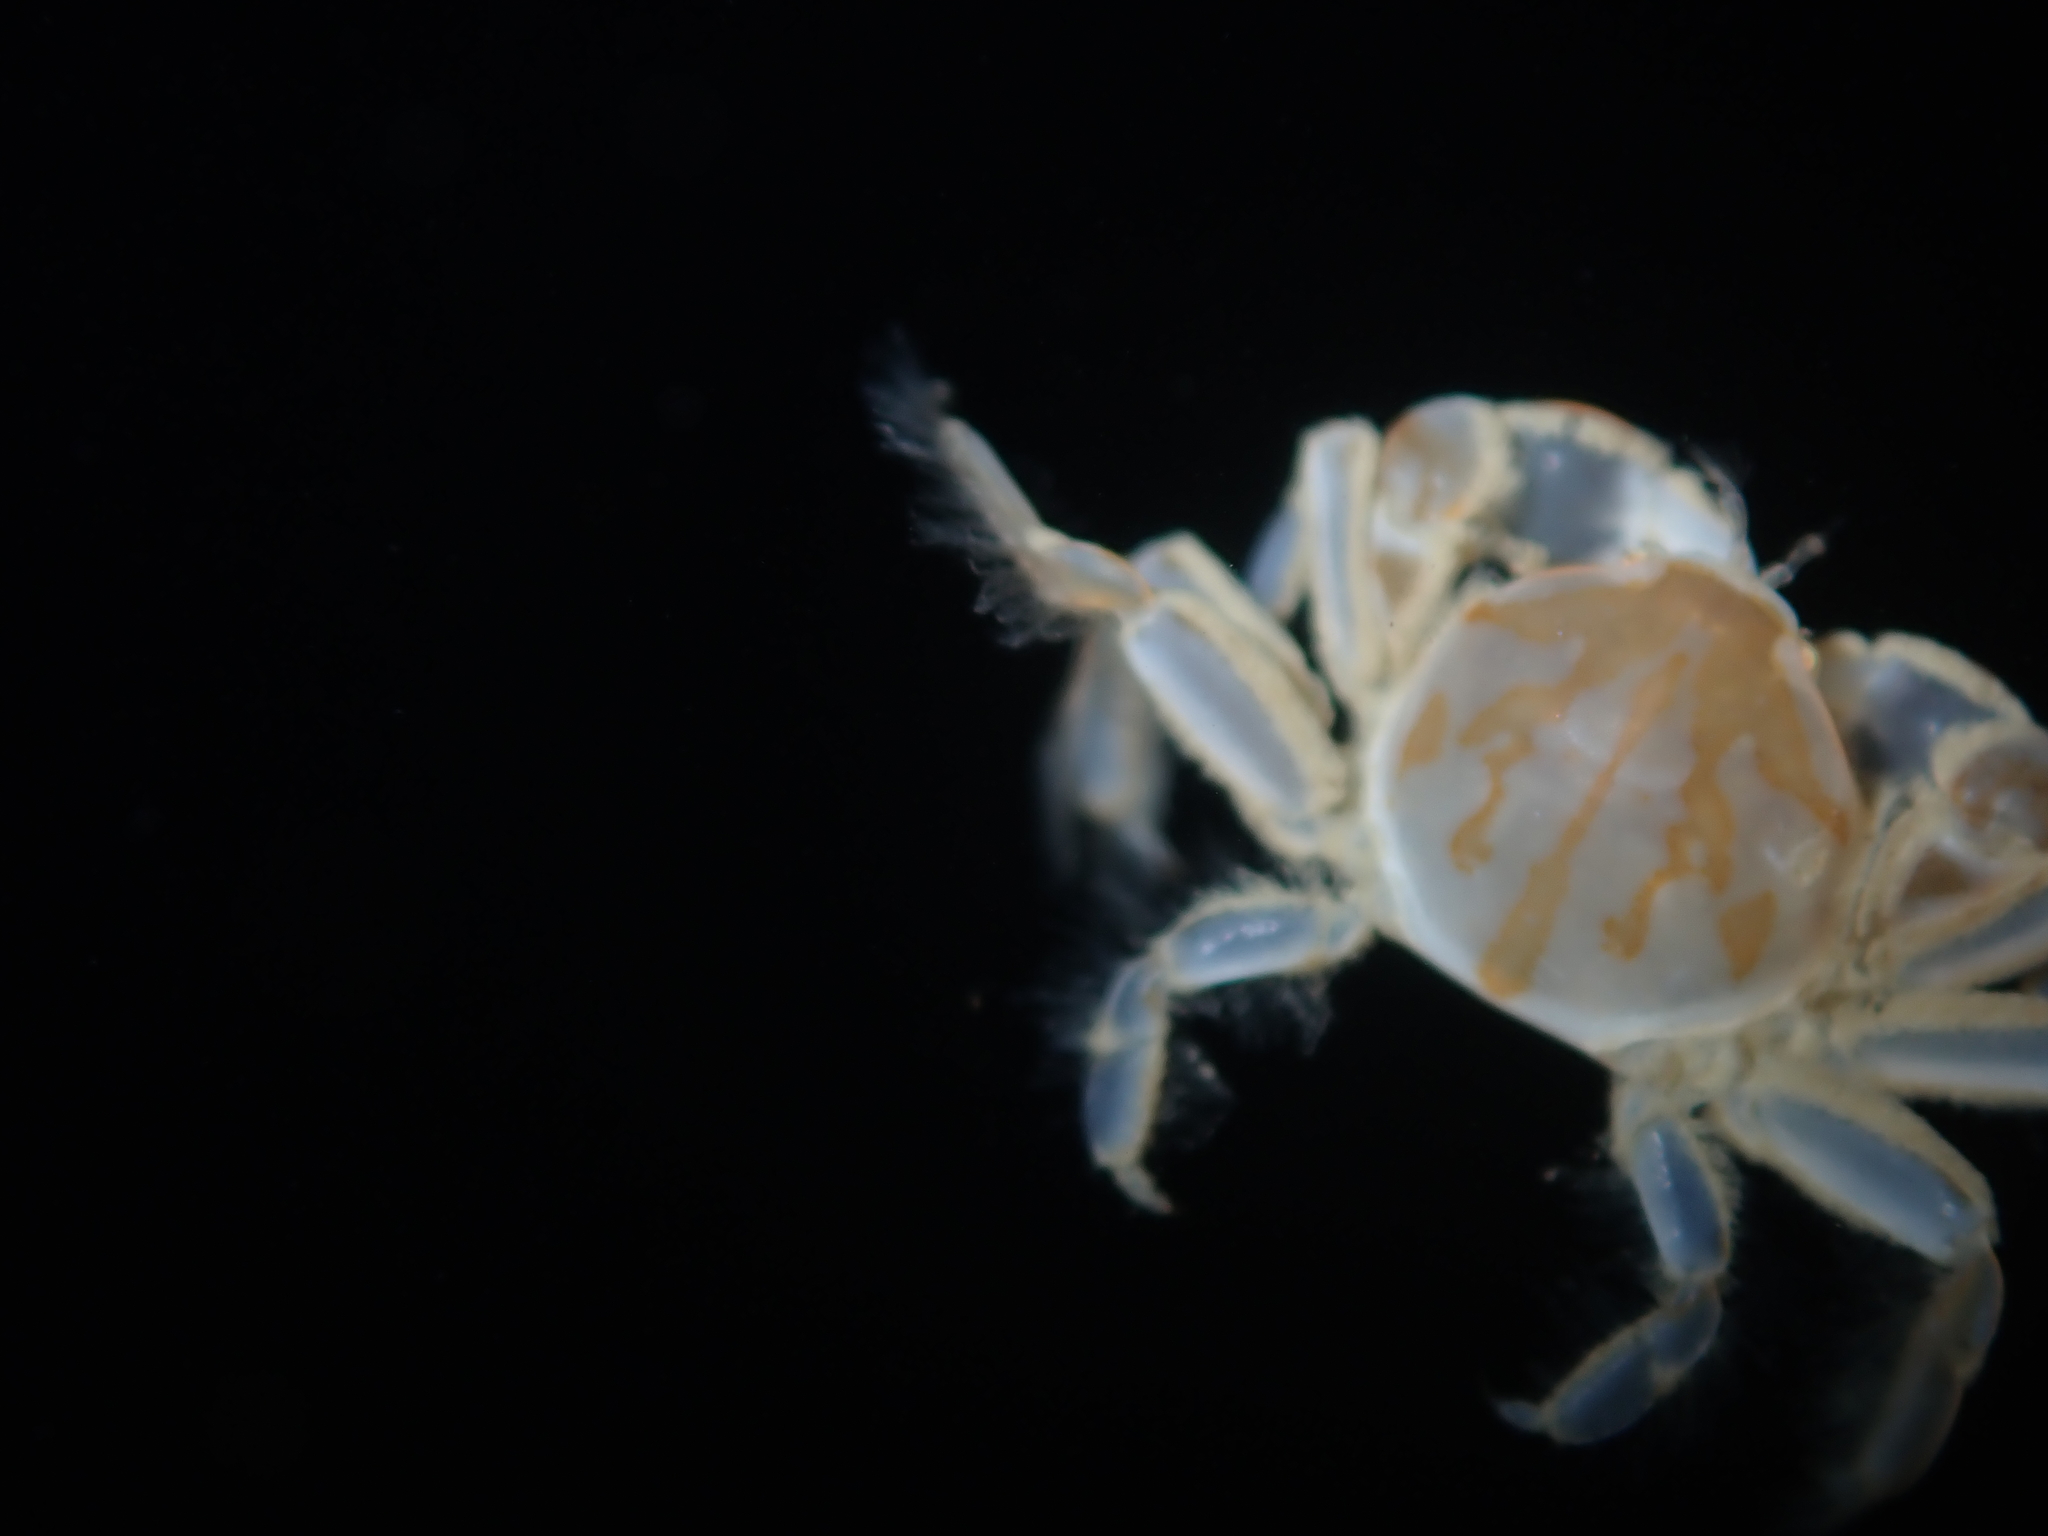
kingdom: Animalia
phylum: Arthropoda
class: Malacostraca
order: Decapoda
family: Pinnotheridae
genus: Nepinnotheres
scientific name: Nepinnotheres atrinicola
